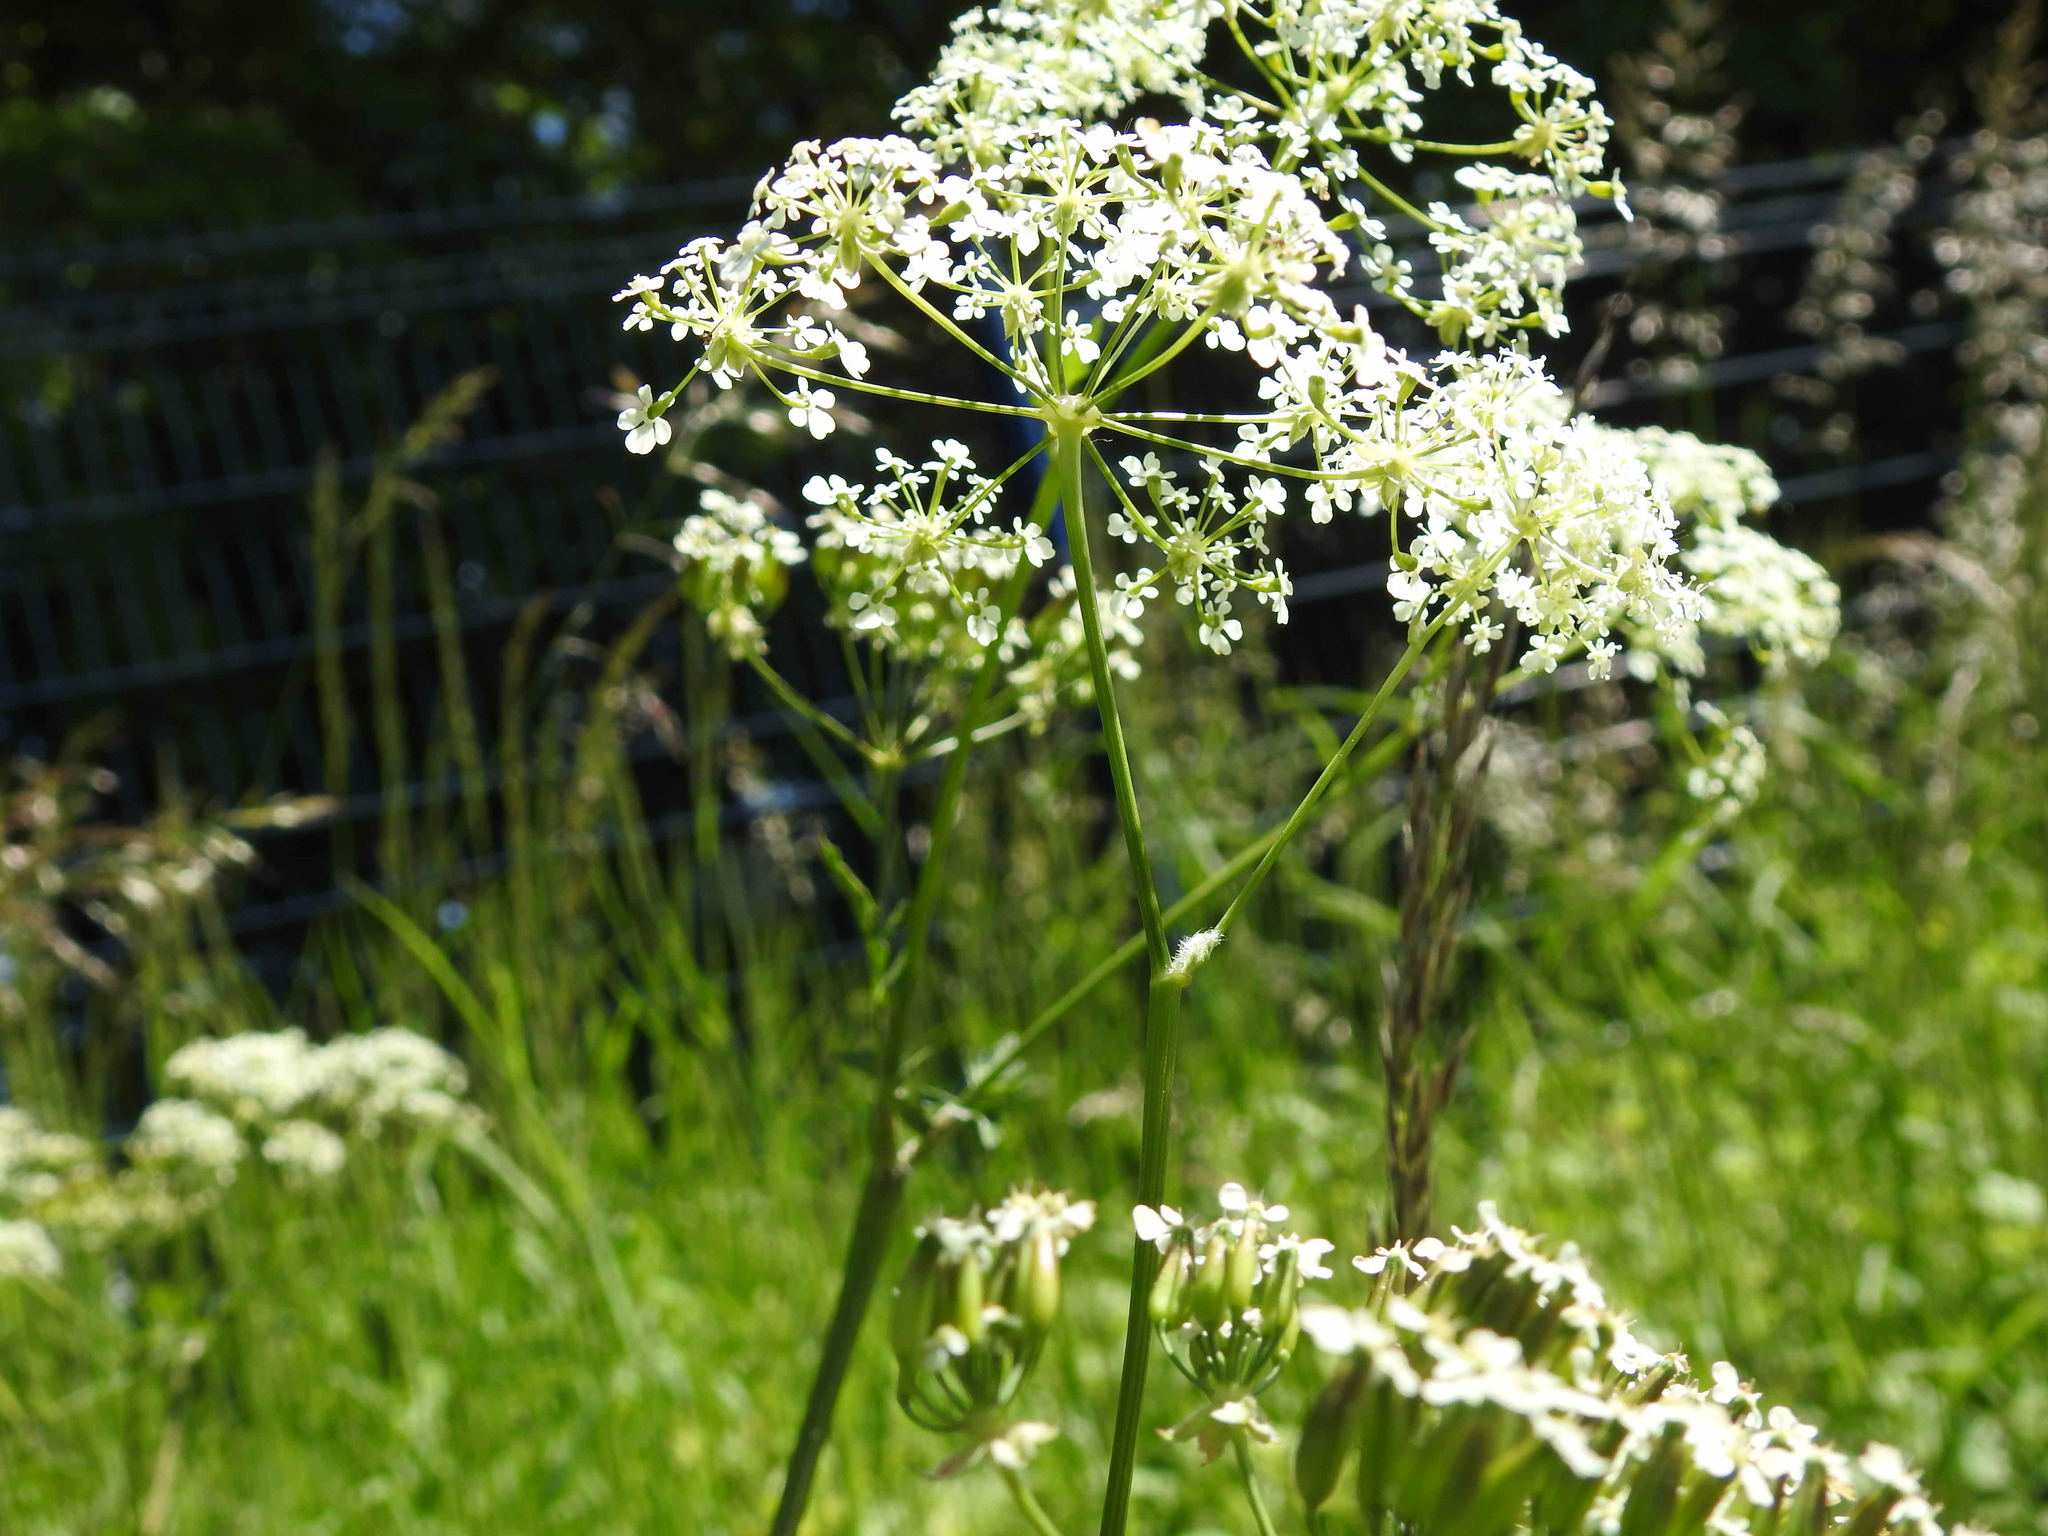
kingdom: Plantae
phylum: Tracheophyta
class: Magnoliopsida
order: Apiales
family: Apiaceae
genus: Anthriscus
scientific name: Anthriscus sylvestris
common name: Cow parsley
